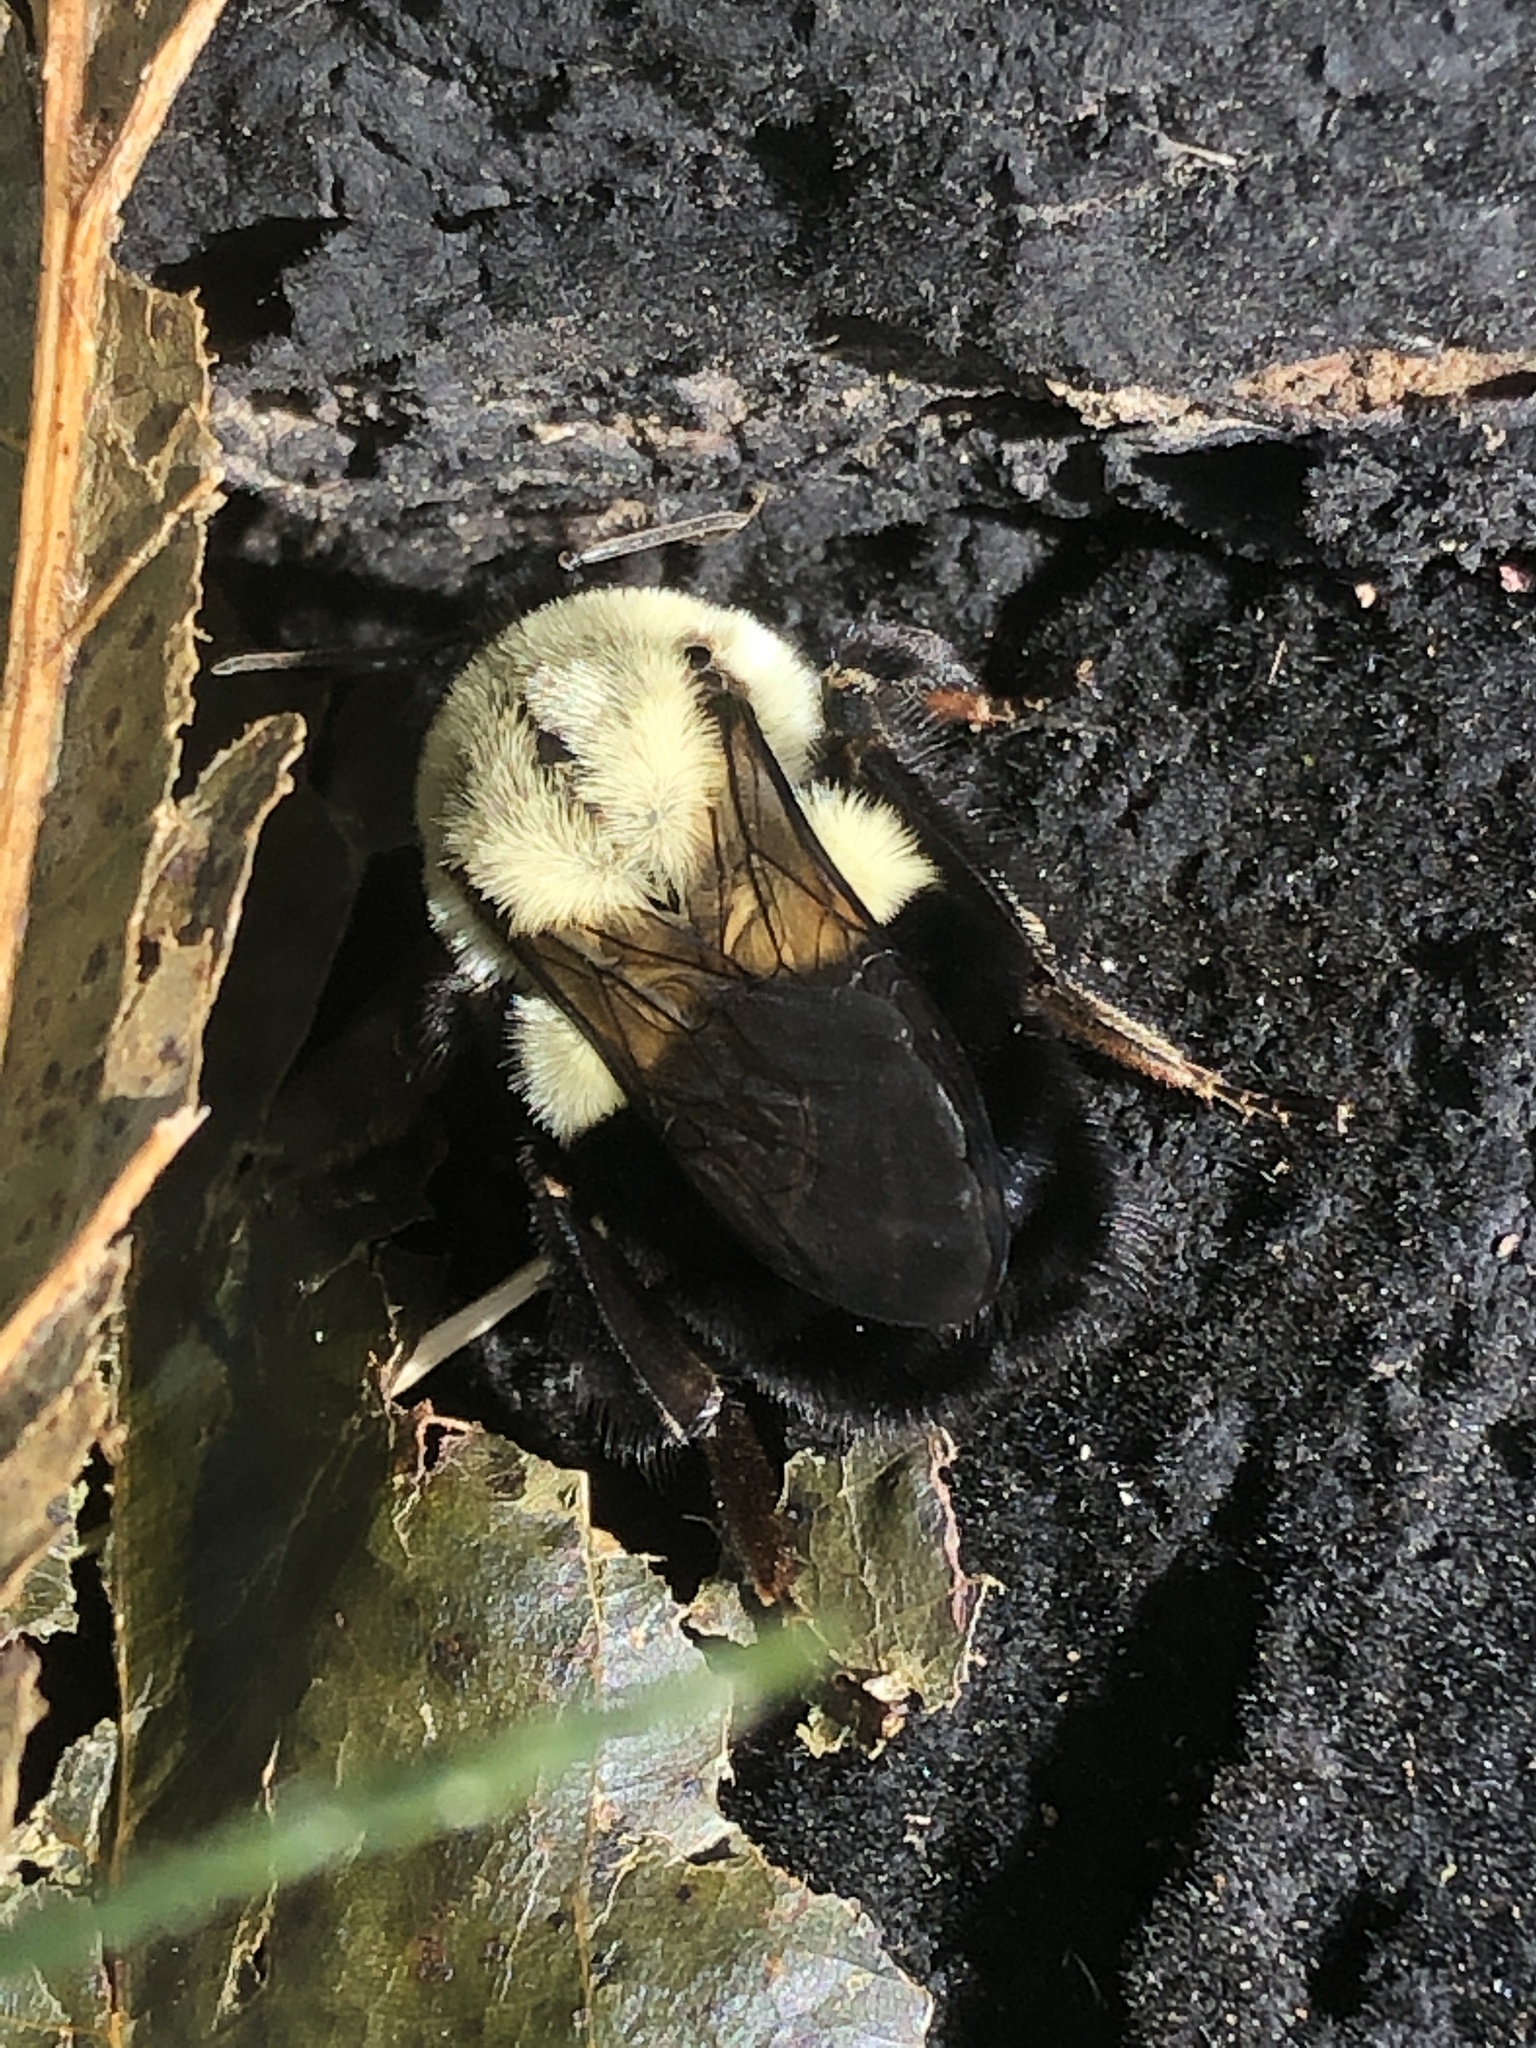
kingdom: Animalia
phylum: Arthropoda
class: Insecta
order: Hymenoptera
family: Apidae
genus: Bombus
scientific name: Bombus impatiens
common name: Common eastern bumble bee
